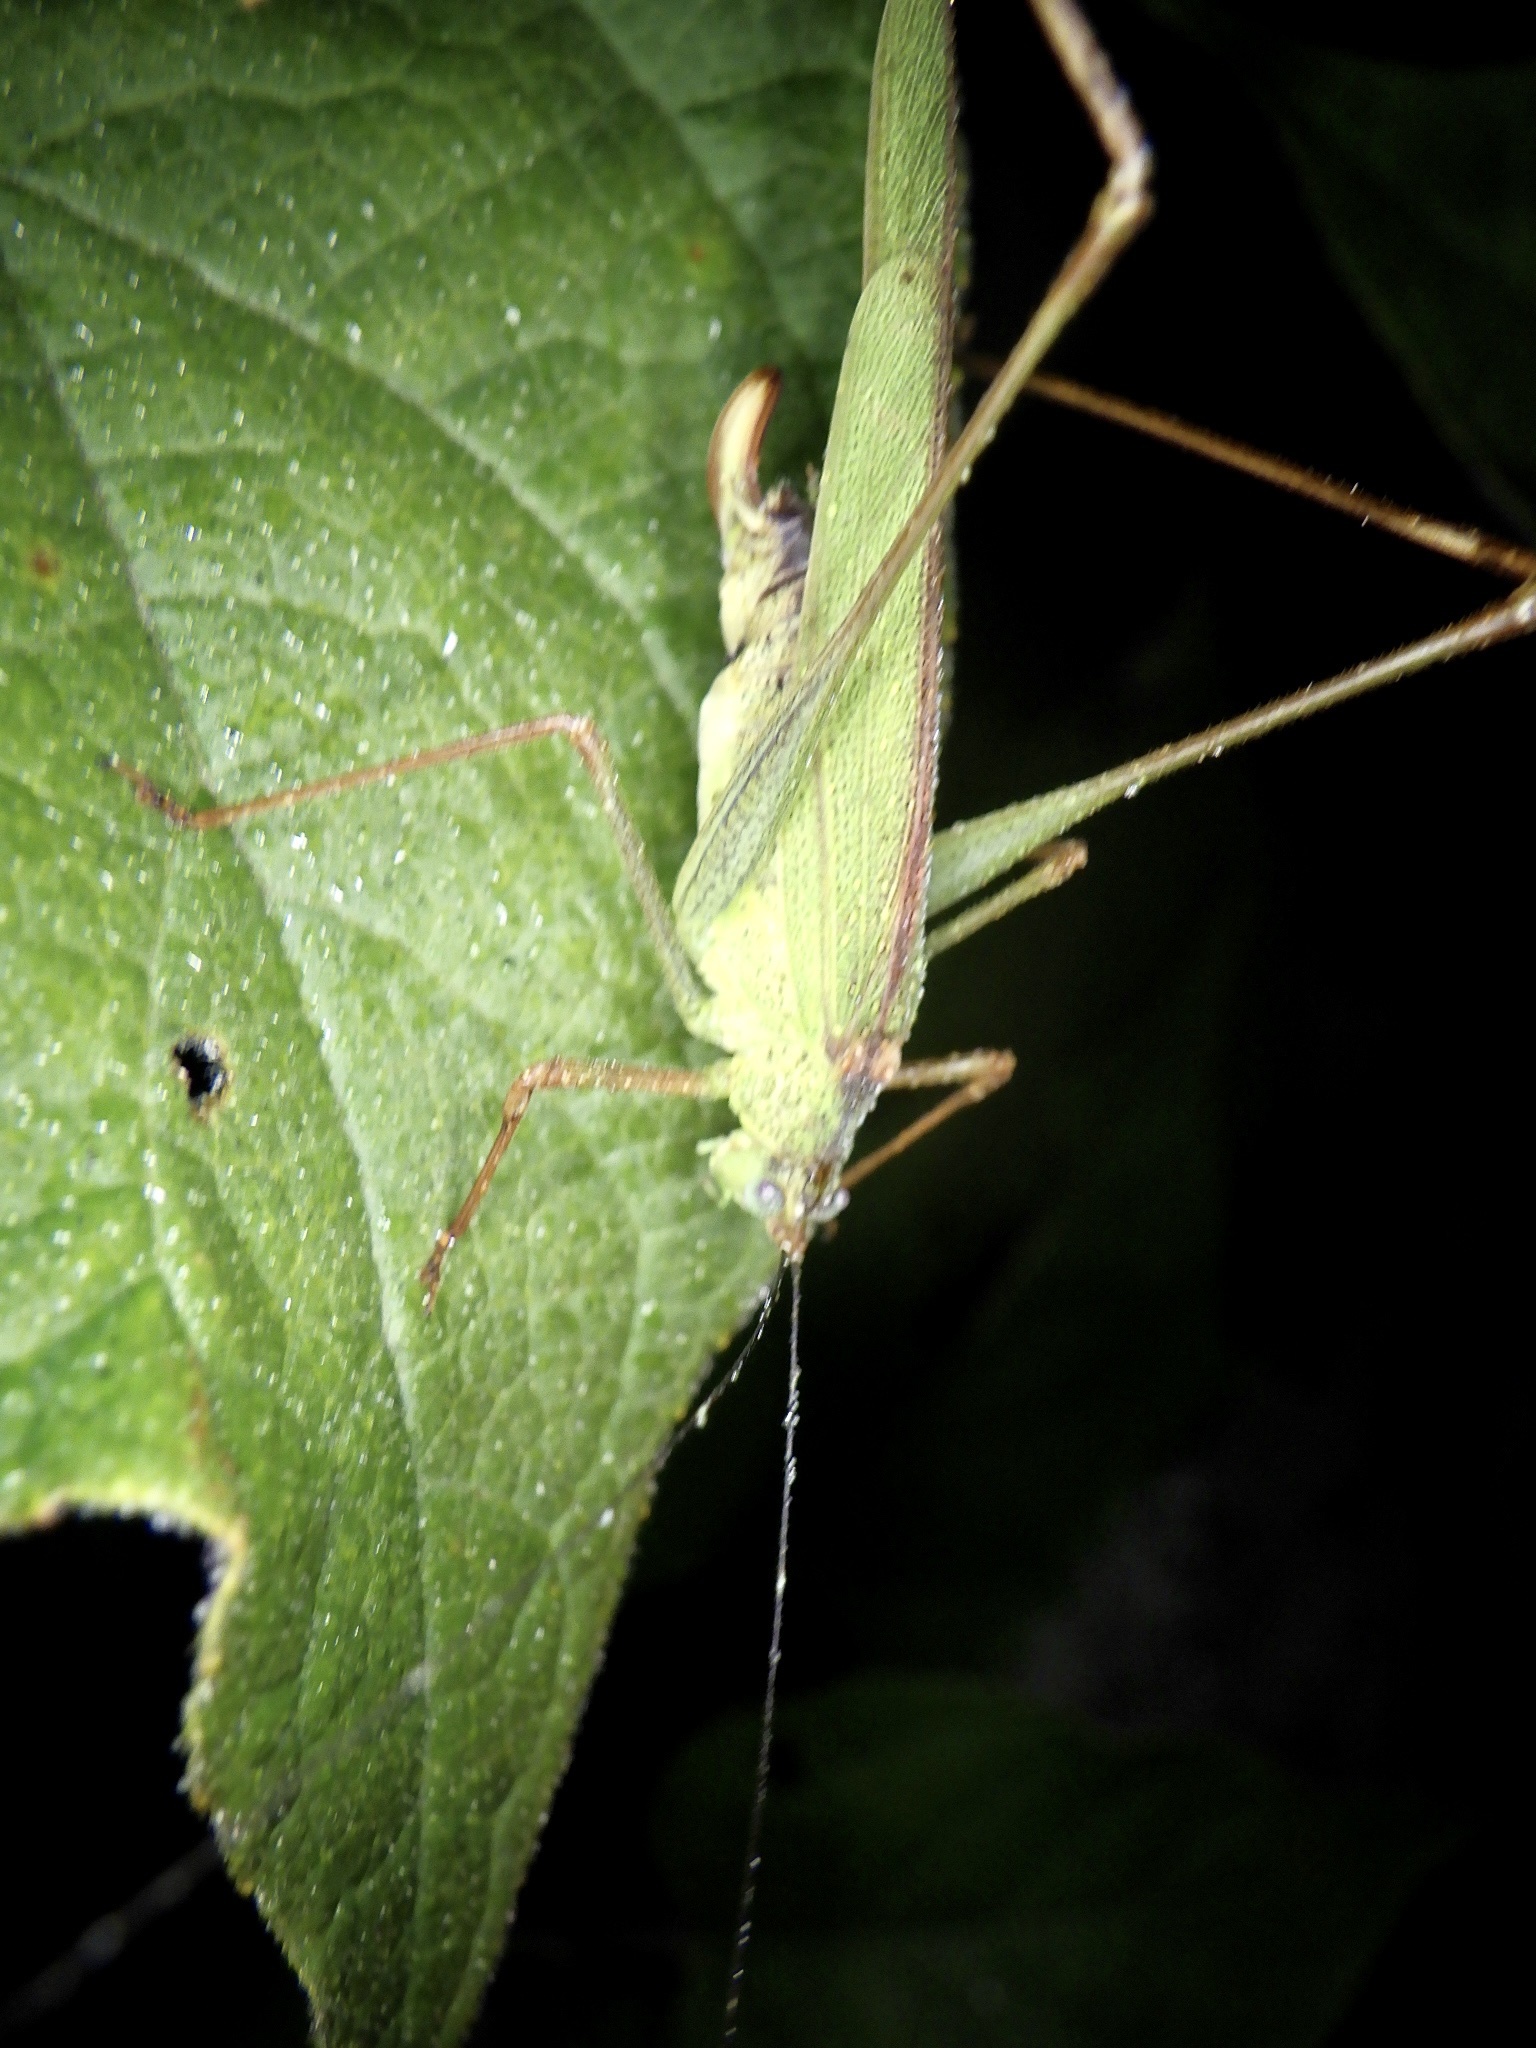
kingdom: Animalia
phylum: Arthropoda
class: Insecta
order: Orthoptera
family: Tettigoniidae
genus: Phaneroptera
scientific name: Phaneroptera nigroantennata
